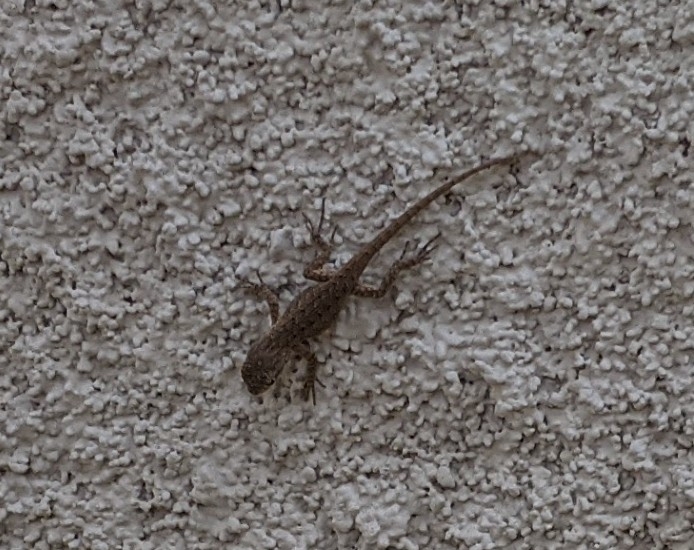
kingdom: Animalia
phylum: Chordata
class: Squamata
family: Phrynosomatidae
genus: Sceloporus
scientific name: Sceloporus occidentalis
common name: Western fence lizard
